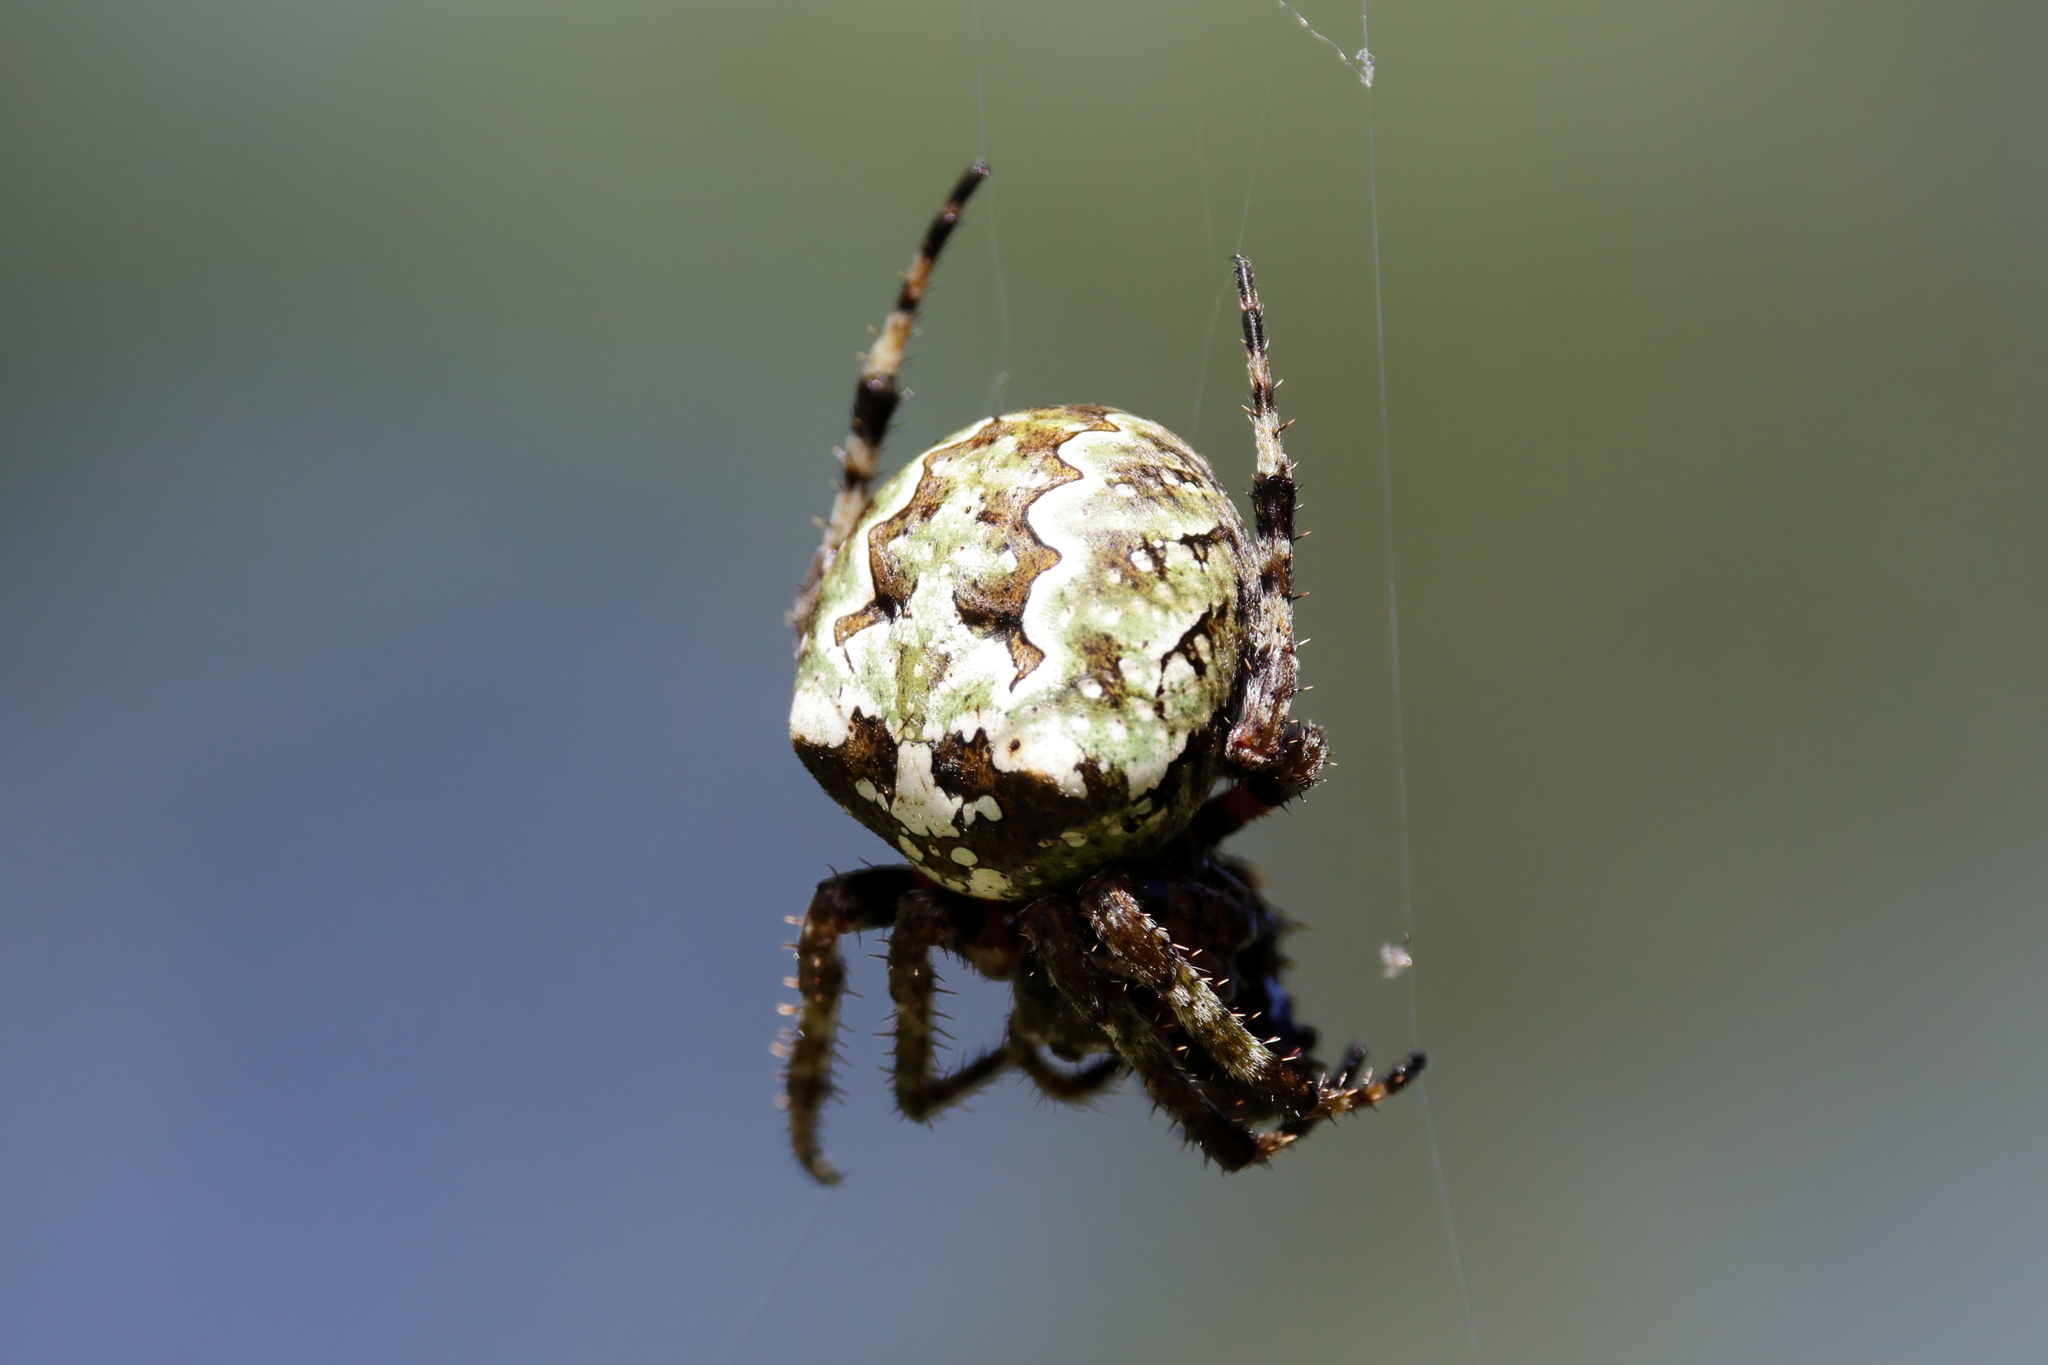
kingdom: Animalia
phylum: Arthropoda
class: Arachnida
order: Araneae
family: Araneidae
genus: Araneus
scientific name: Araneus bicentenarius
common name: Giant lichen orbweaver
